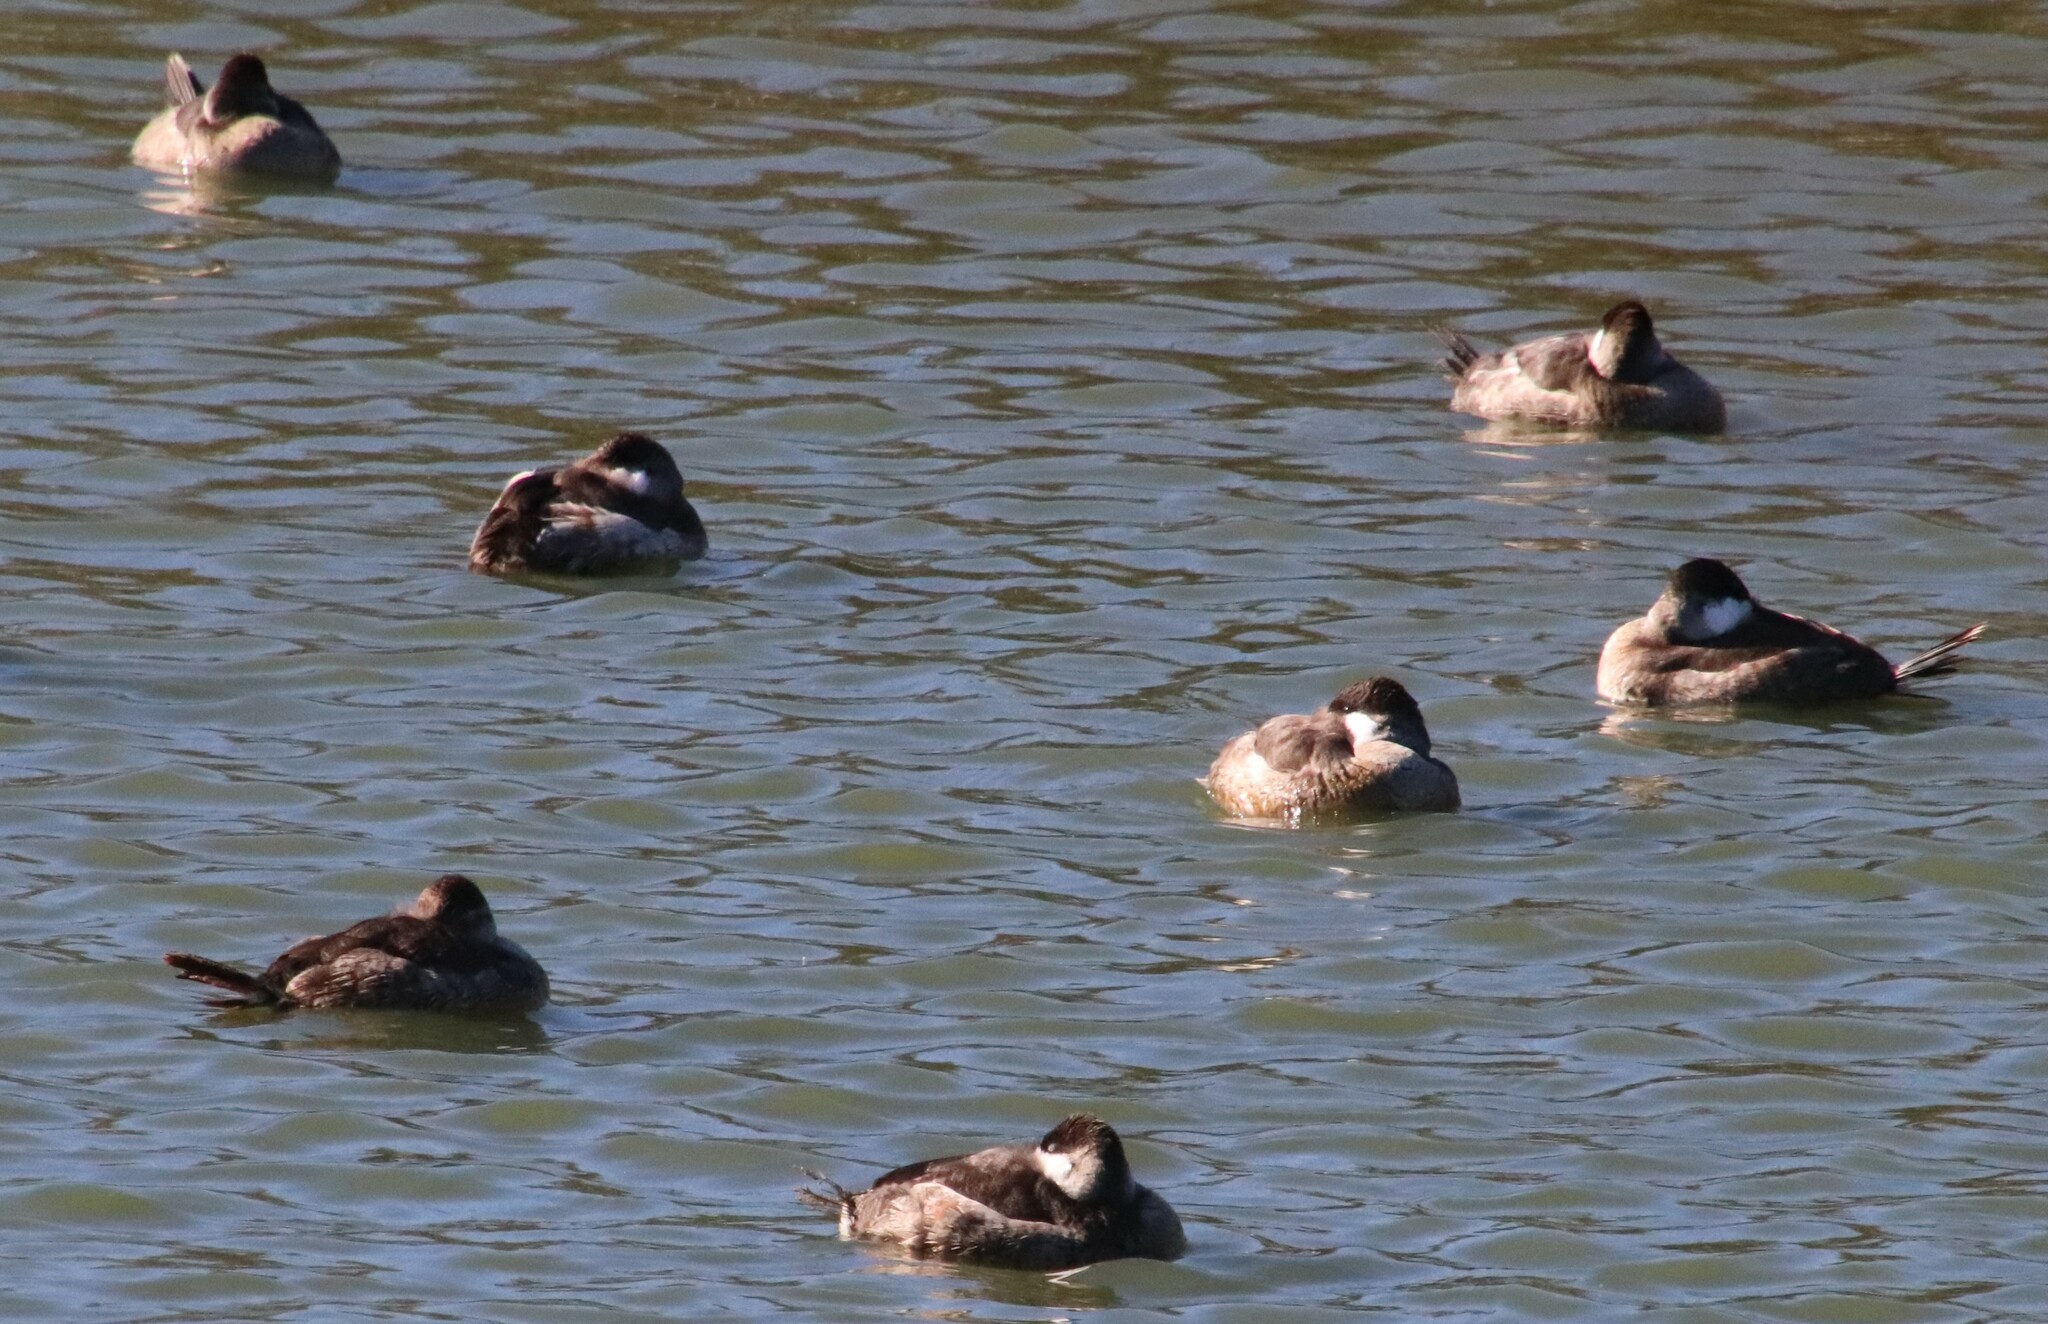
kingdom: Animalia
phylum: Chordata
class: Aves
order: Anseriformes
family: Anatidae
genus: Oxyura
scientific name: Oxyura jamaicensis
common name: Ruddy duck
